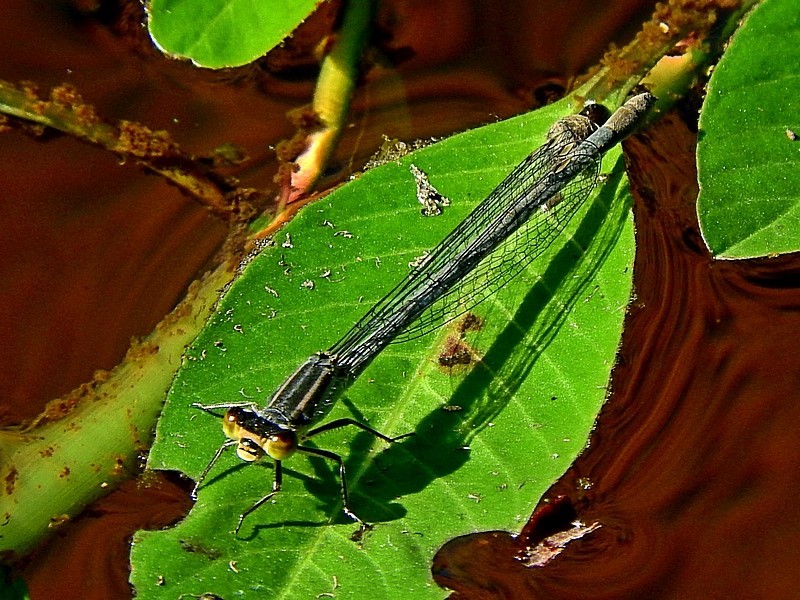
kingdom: Animalia
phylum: Arthropoda
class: Insecta
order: Odonata
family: Coenagrionidae
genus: Ischnura
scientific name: Ischnura heterosticta
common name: Common bluetail
